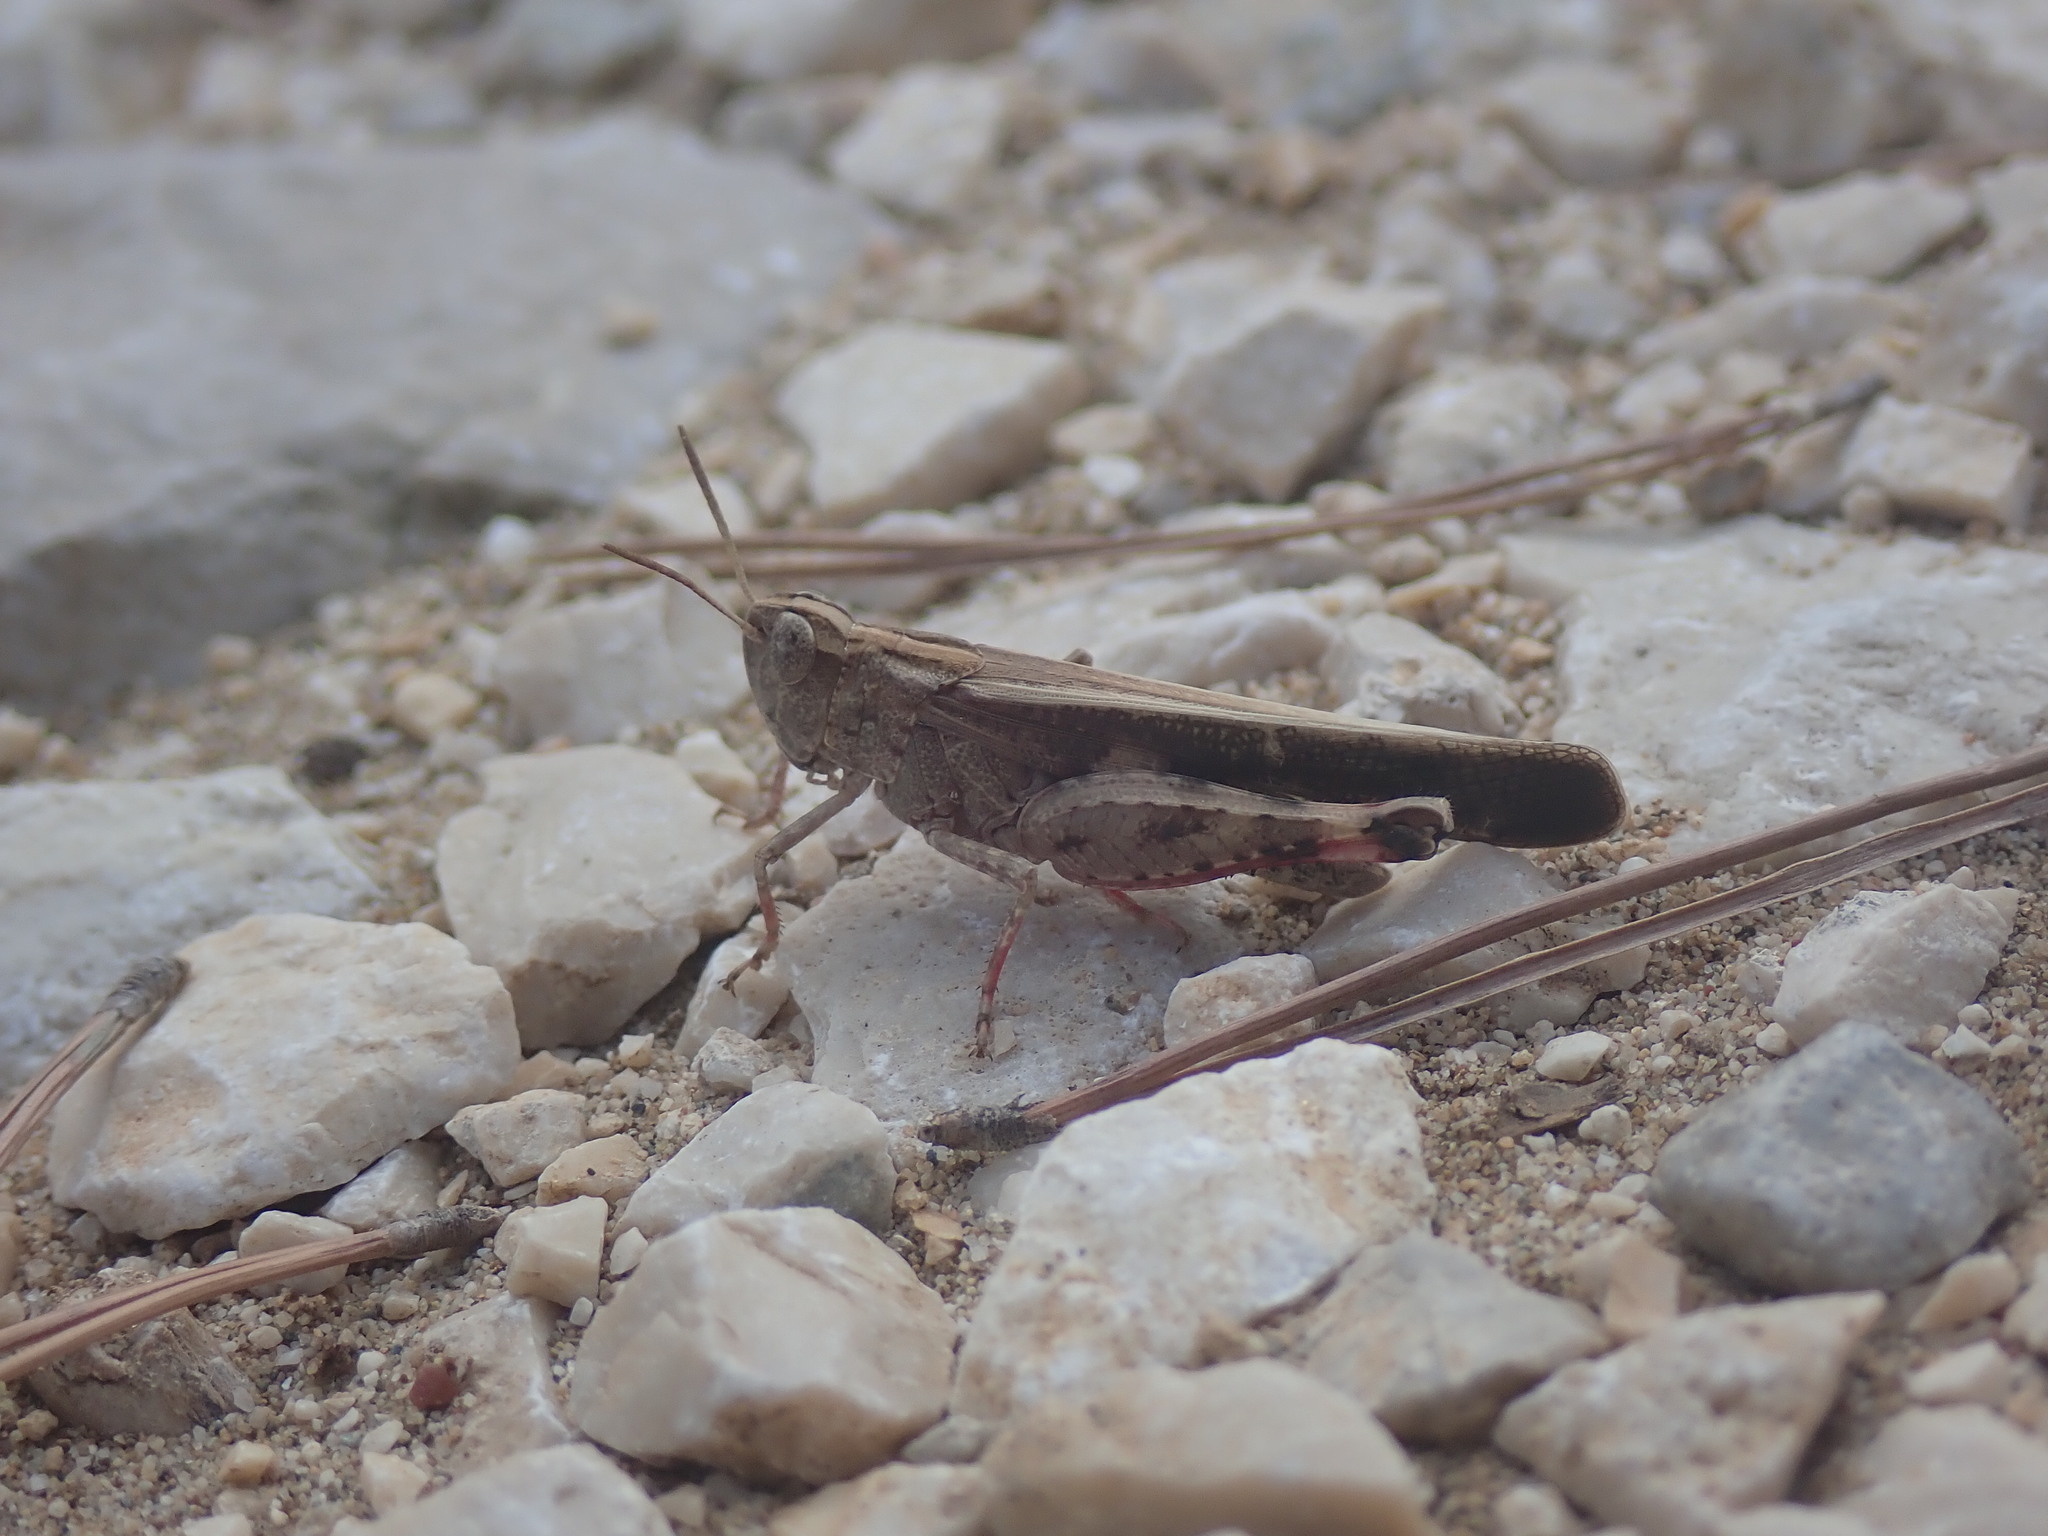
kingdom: Animalia
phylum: Arthropoda
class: Insecta
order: Orthoptera
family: Acrididae
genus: Aiolopus
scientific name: Aiolopus strepens
